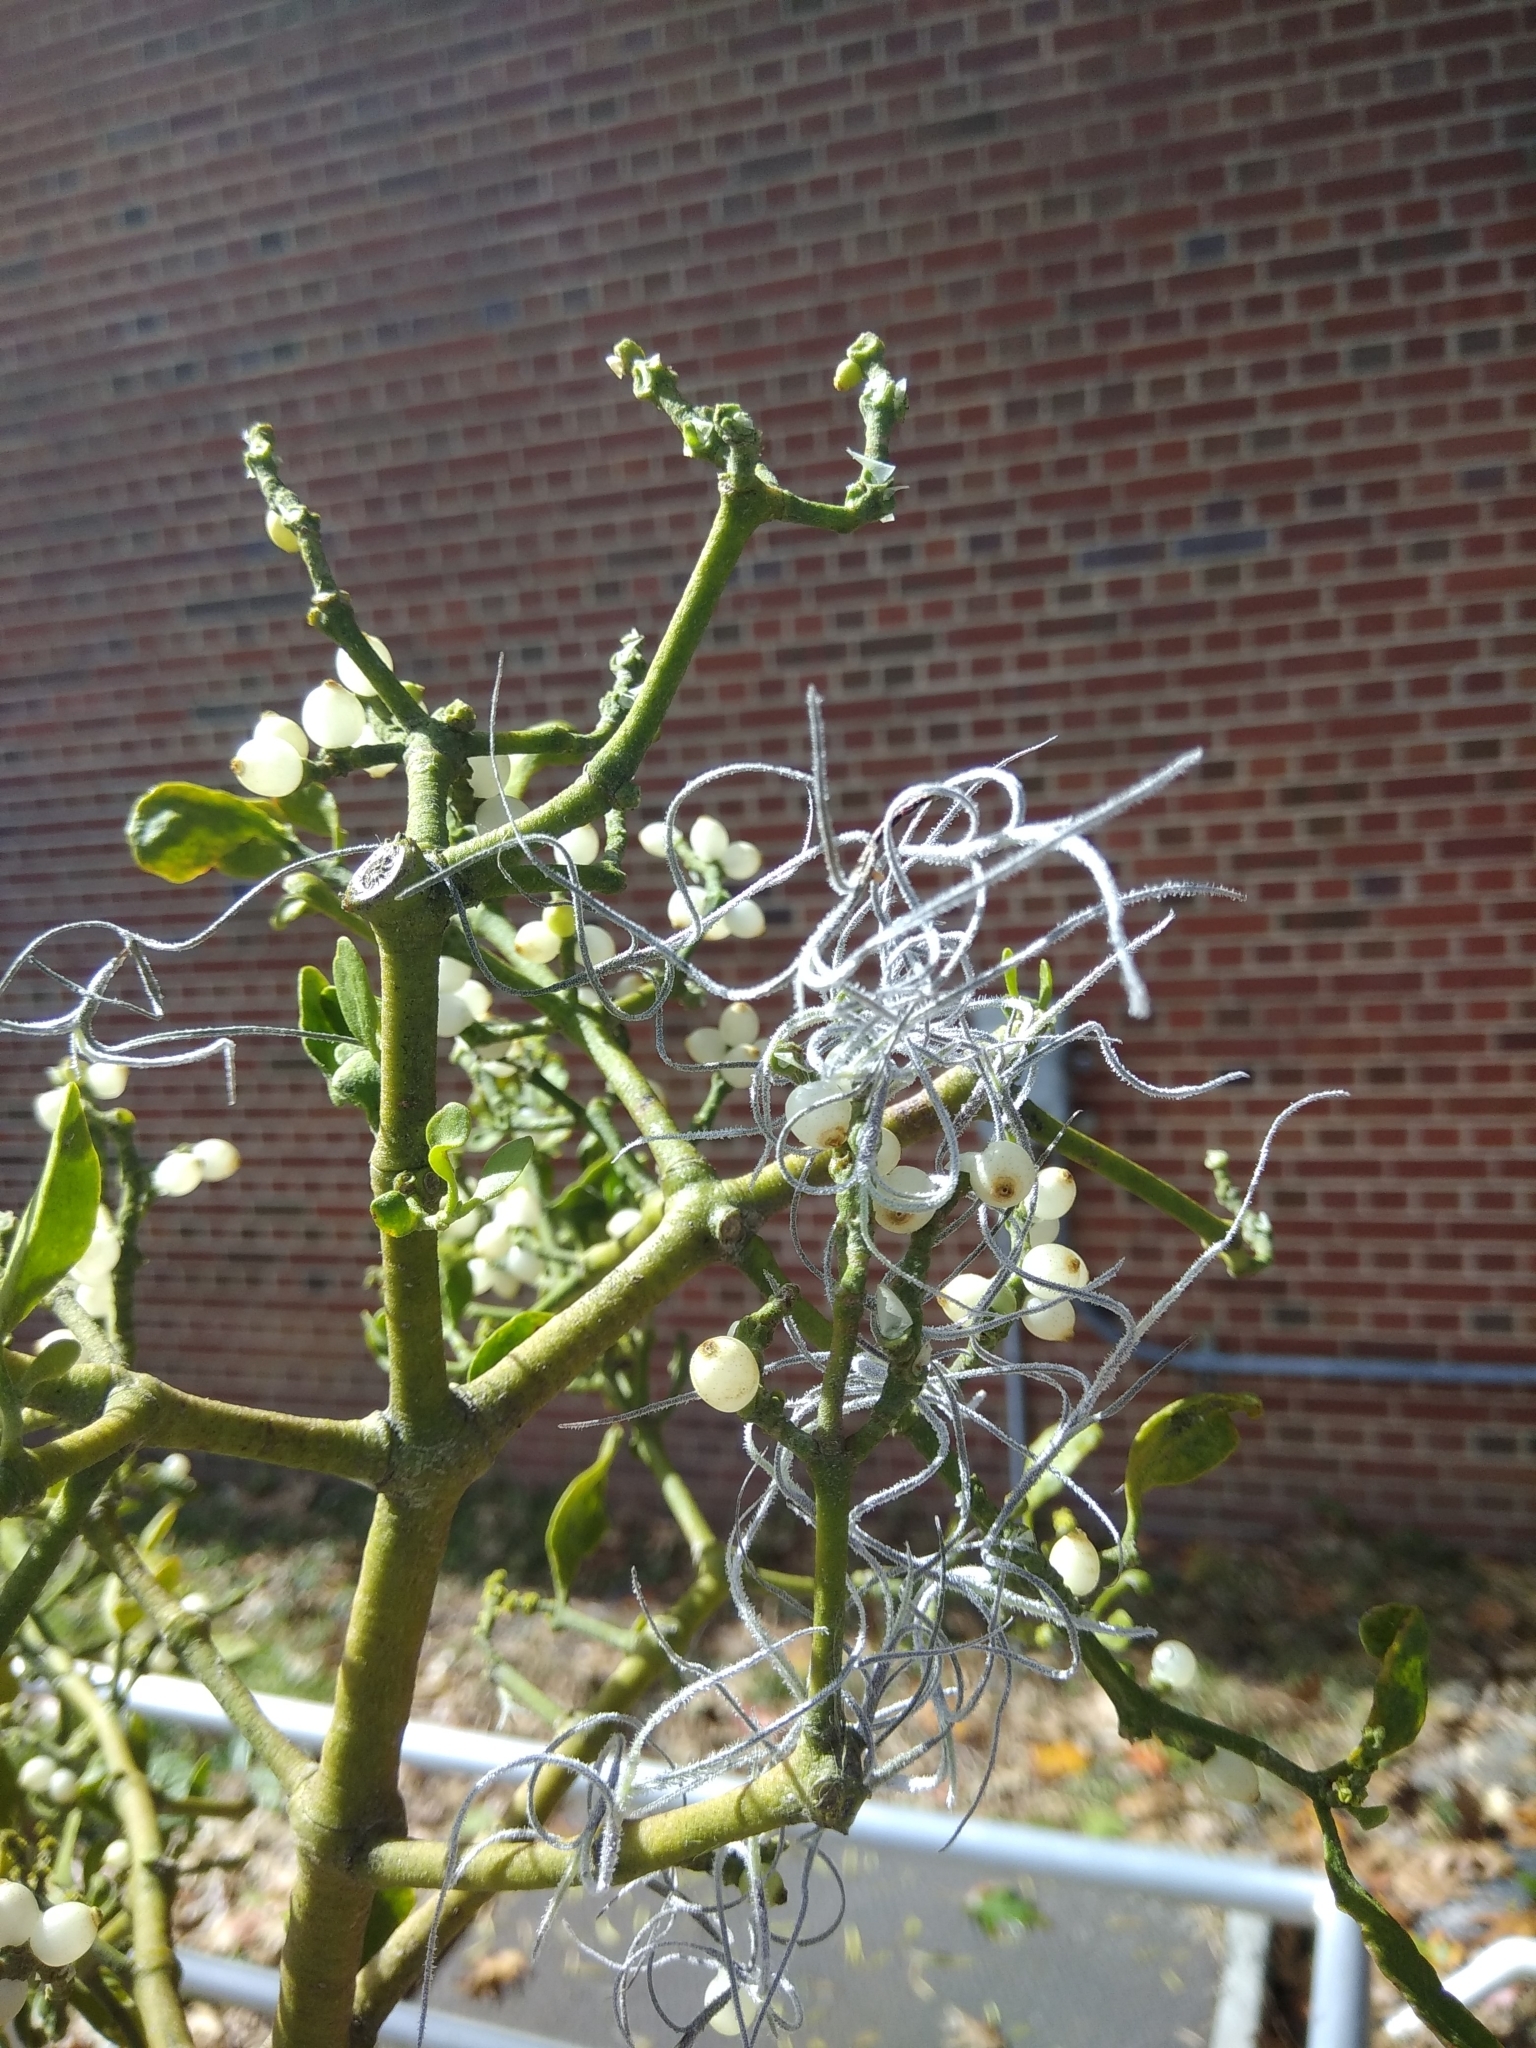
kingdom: Plantae
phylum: Tracheophyta
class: Liliopsida
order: Poales
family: Bromeliaceae
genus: Tillandsia
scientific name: Tillandsia usneoides
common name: Spanish moss
